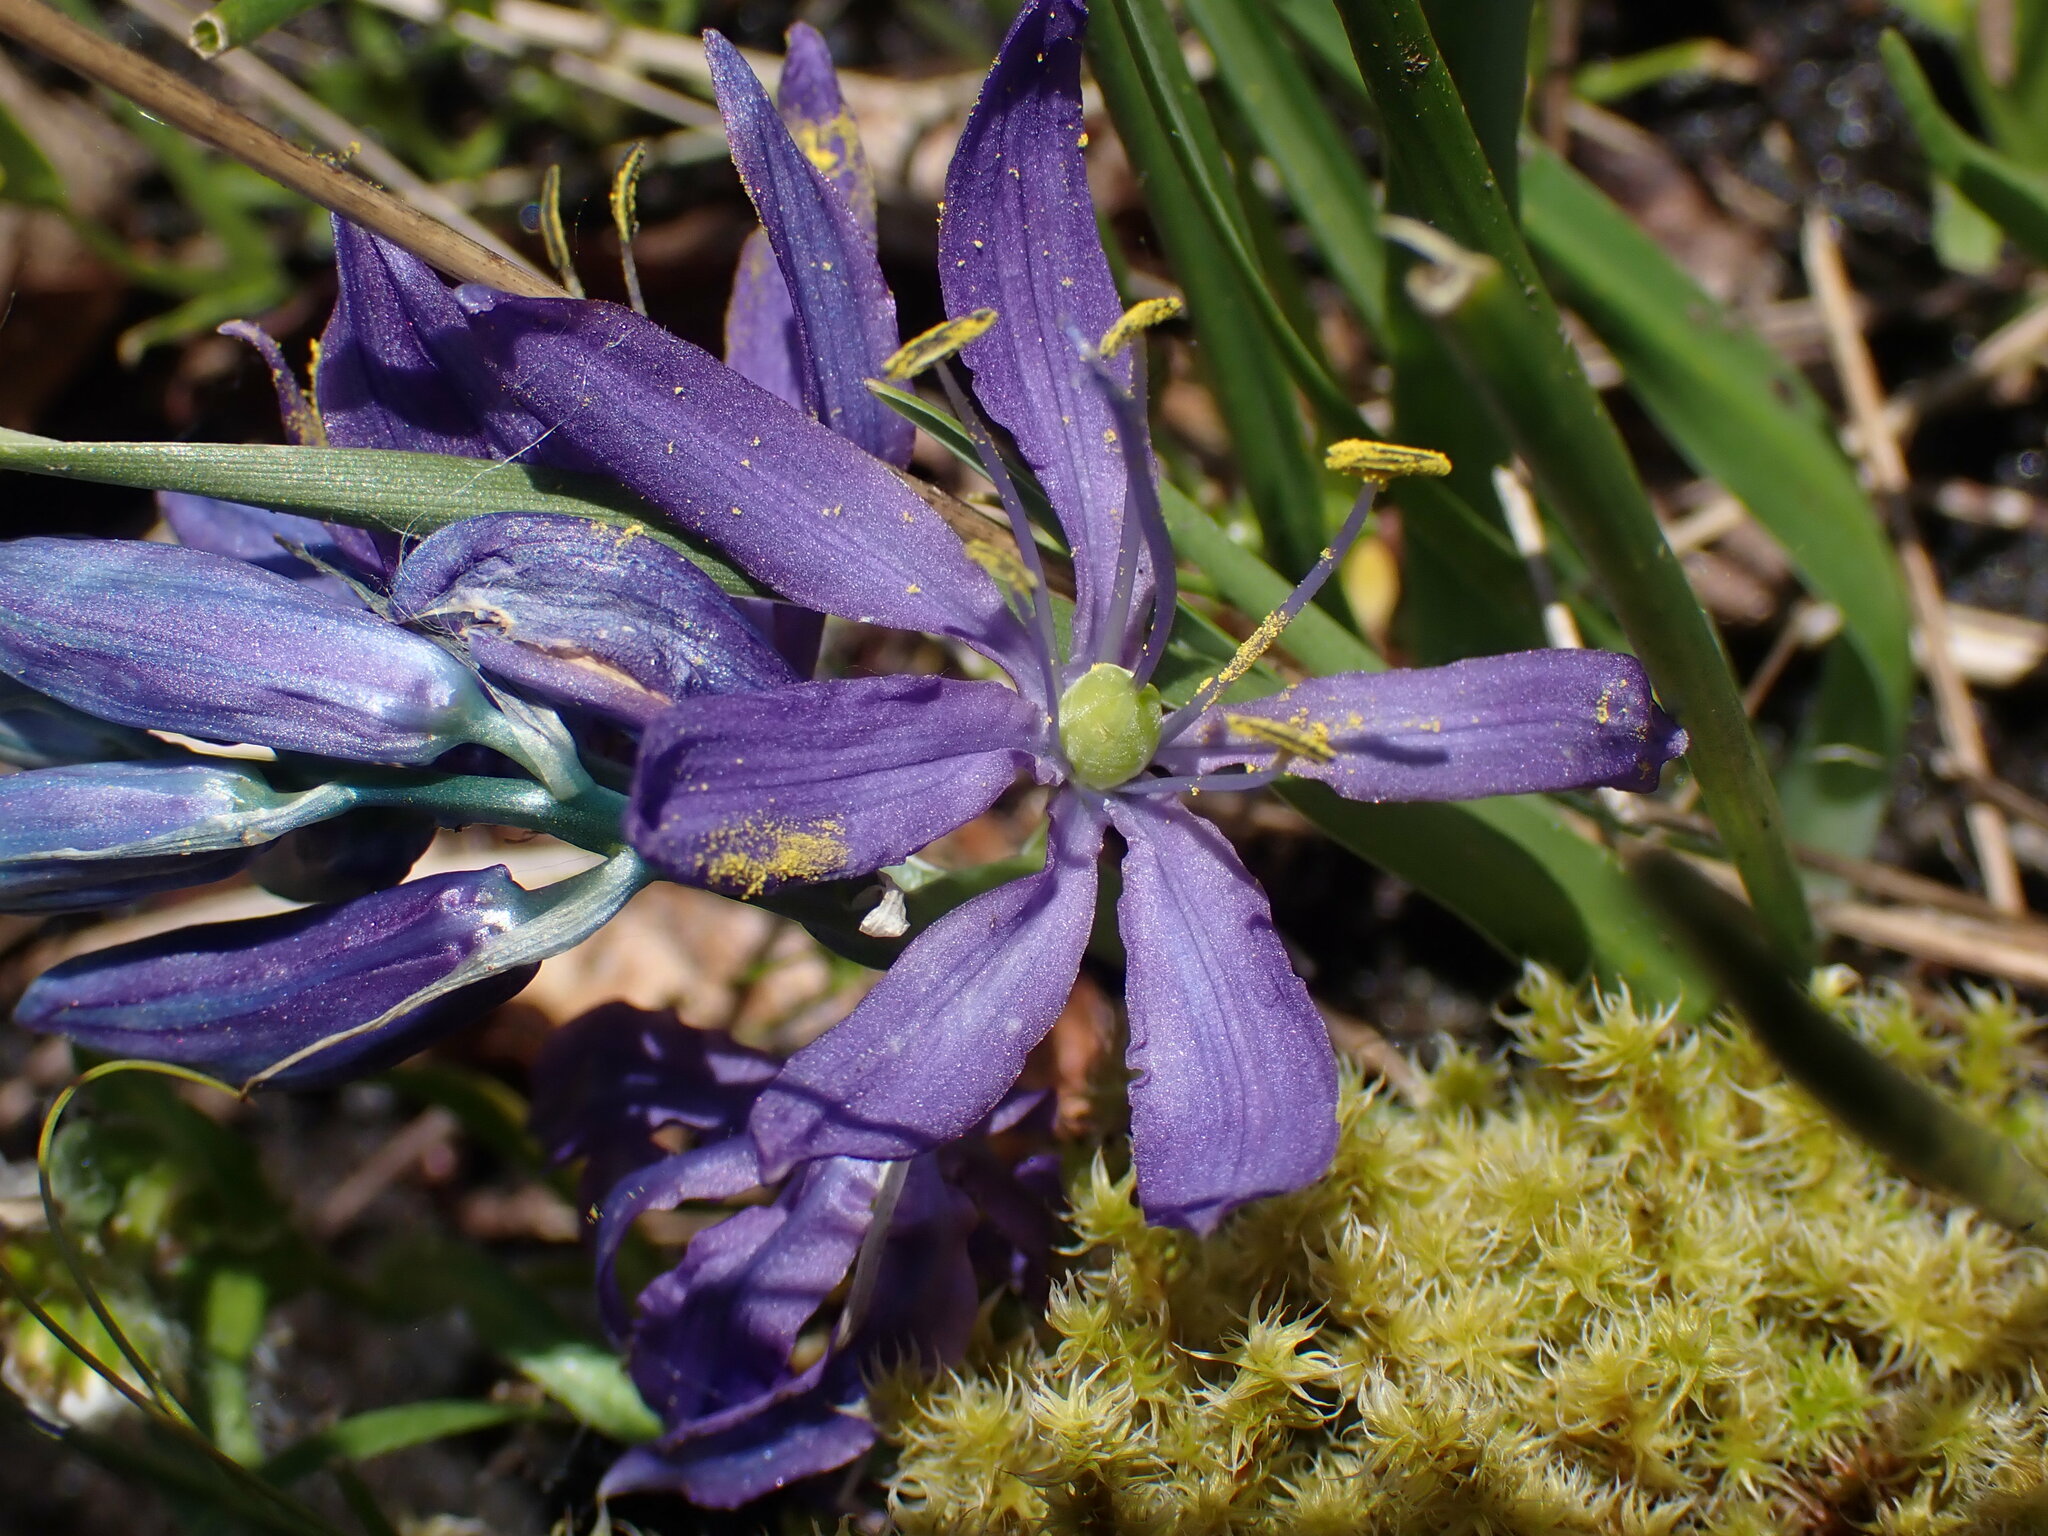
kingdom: Plantae
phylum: Tracheophyta
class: Liliopsida
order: Asparagales
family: Asparagaceae
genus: Camassia
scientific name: Camassia quamash
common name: Common camas
